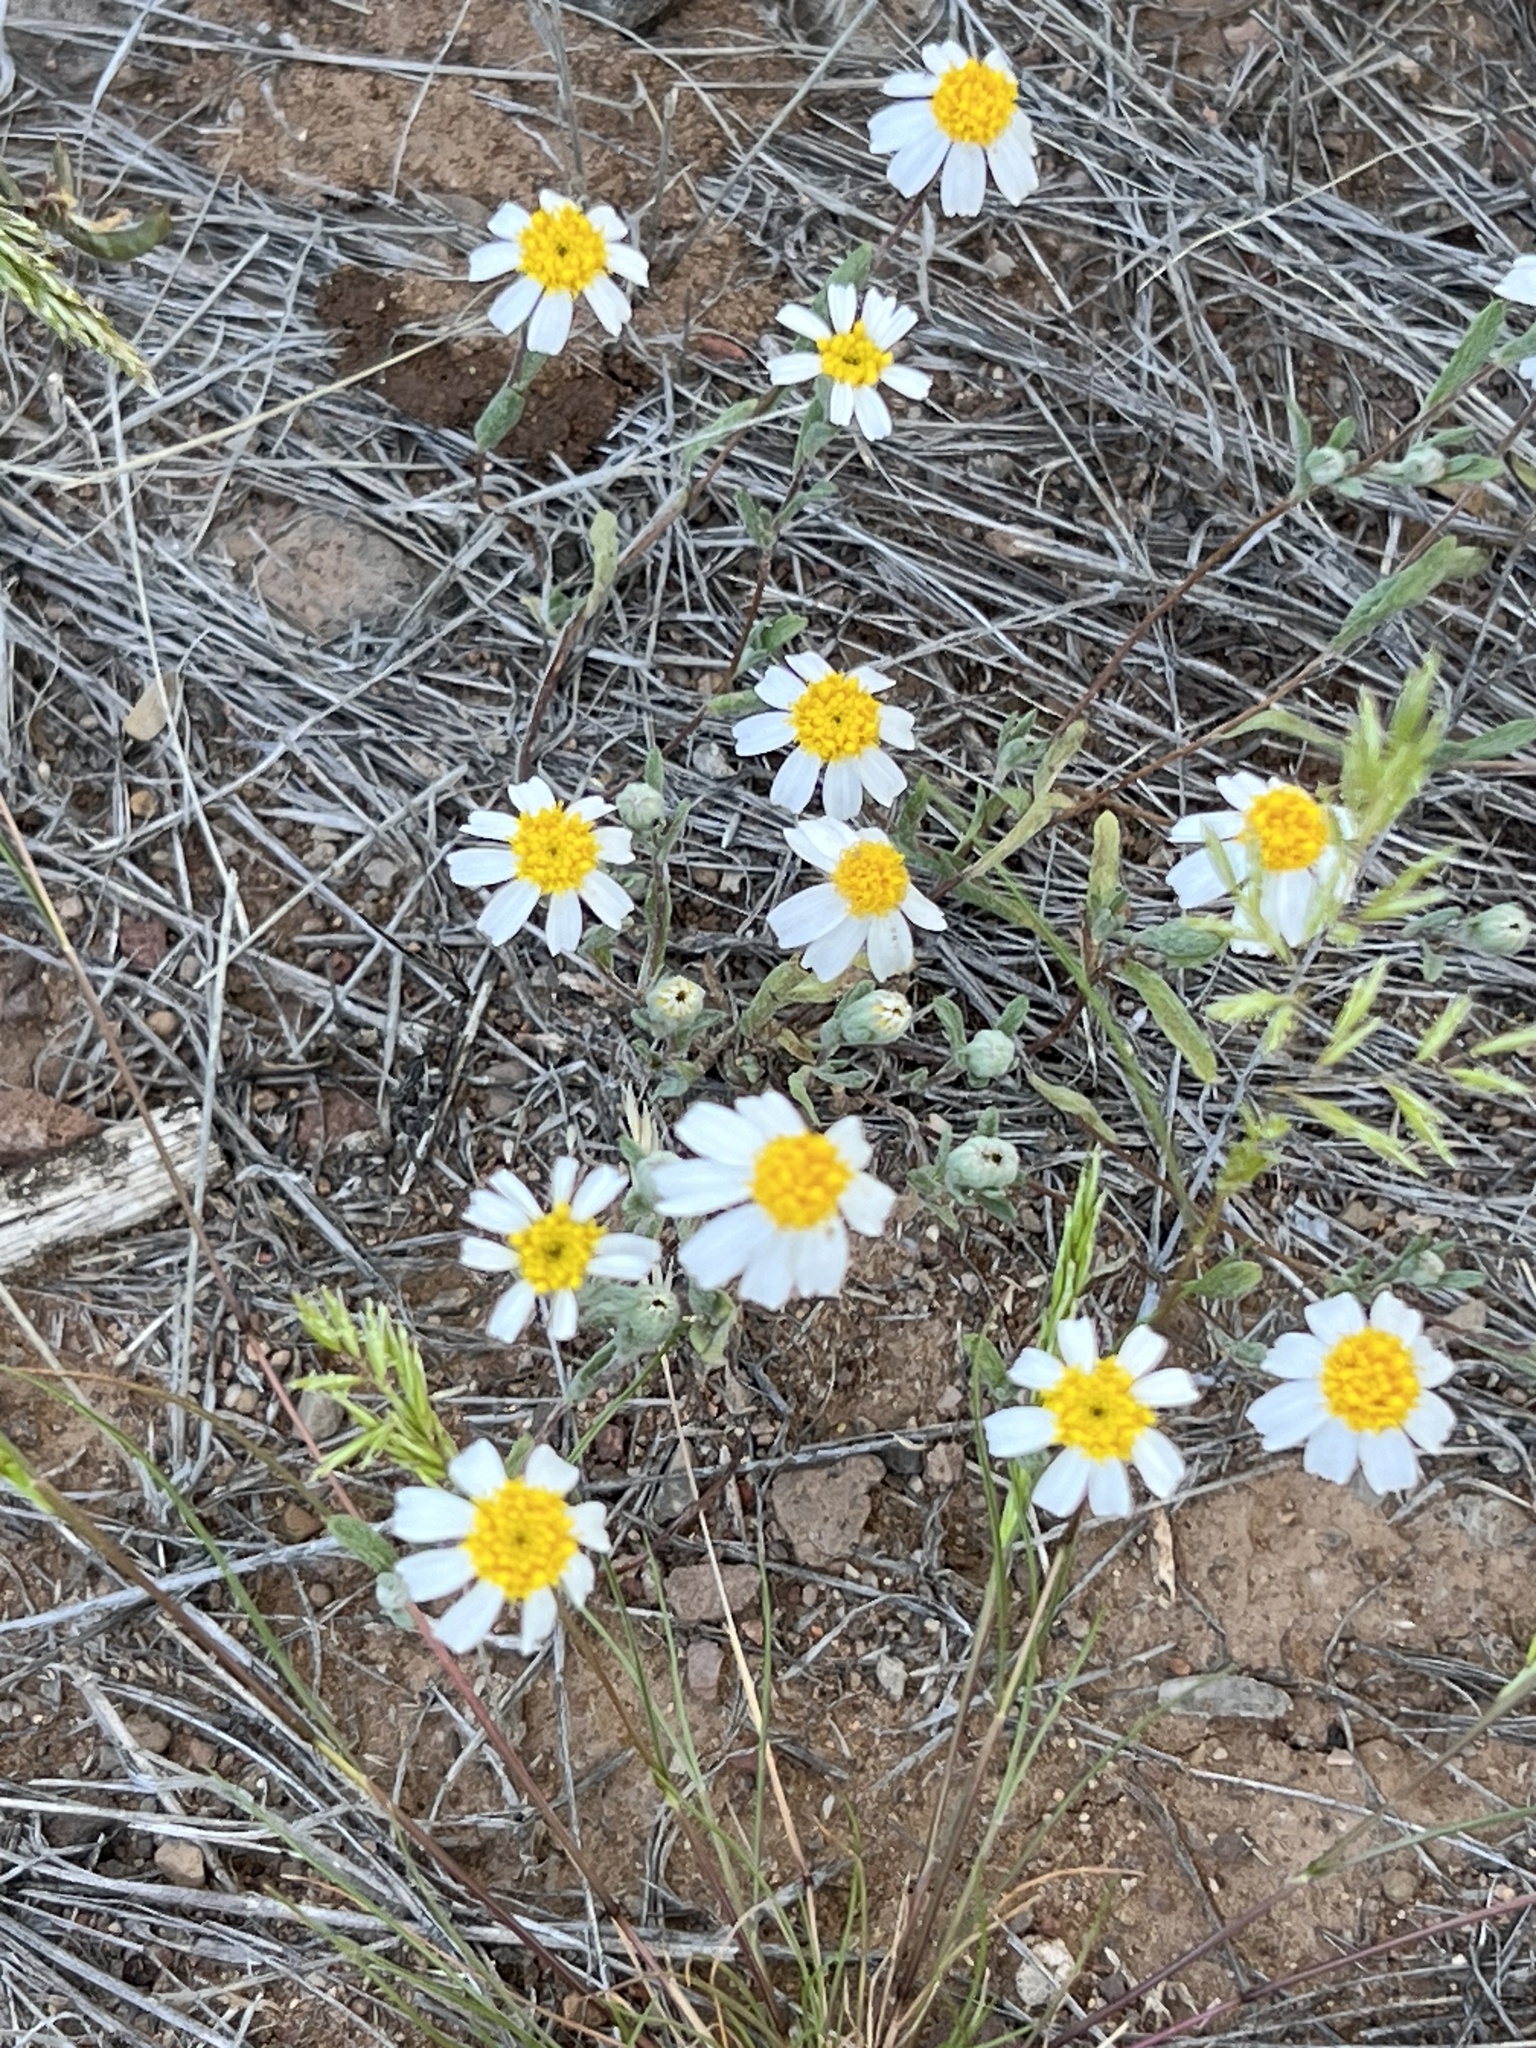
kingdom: Plantae
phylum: Tracheophyta
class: Magnoliopsida
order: Asterales
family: Asteraceae
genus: Eriophyllum
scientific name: Eriophyllum lanosum
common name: White easter-bonnets
